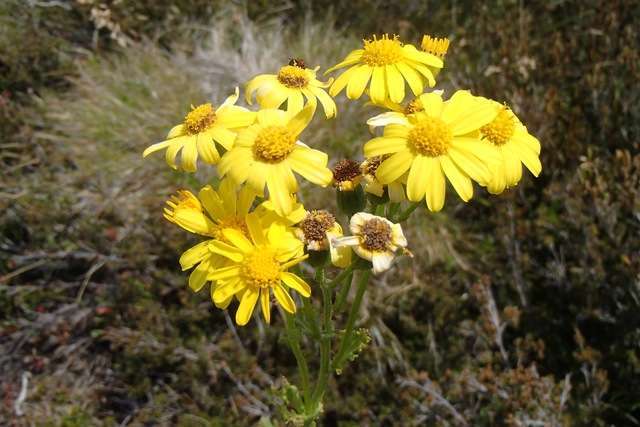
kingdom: Plantae
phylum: Tracheophyta
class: Magnoliopsida
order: Asterales
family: Asteraceae
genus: Senecio
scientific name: Senecio pinnatifolius
